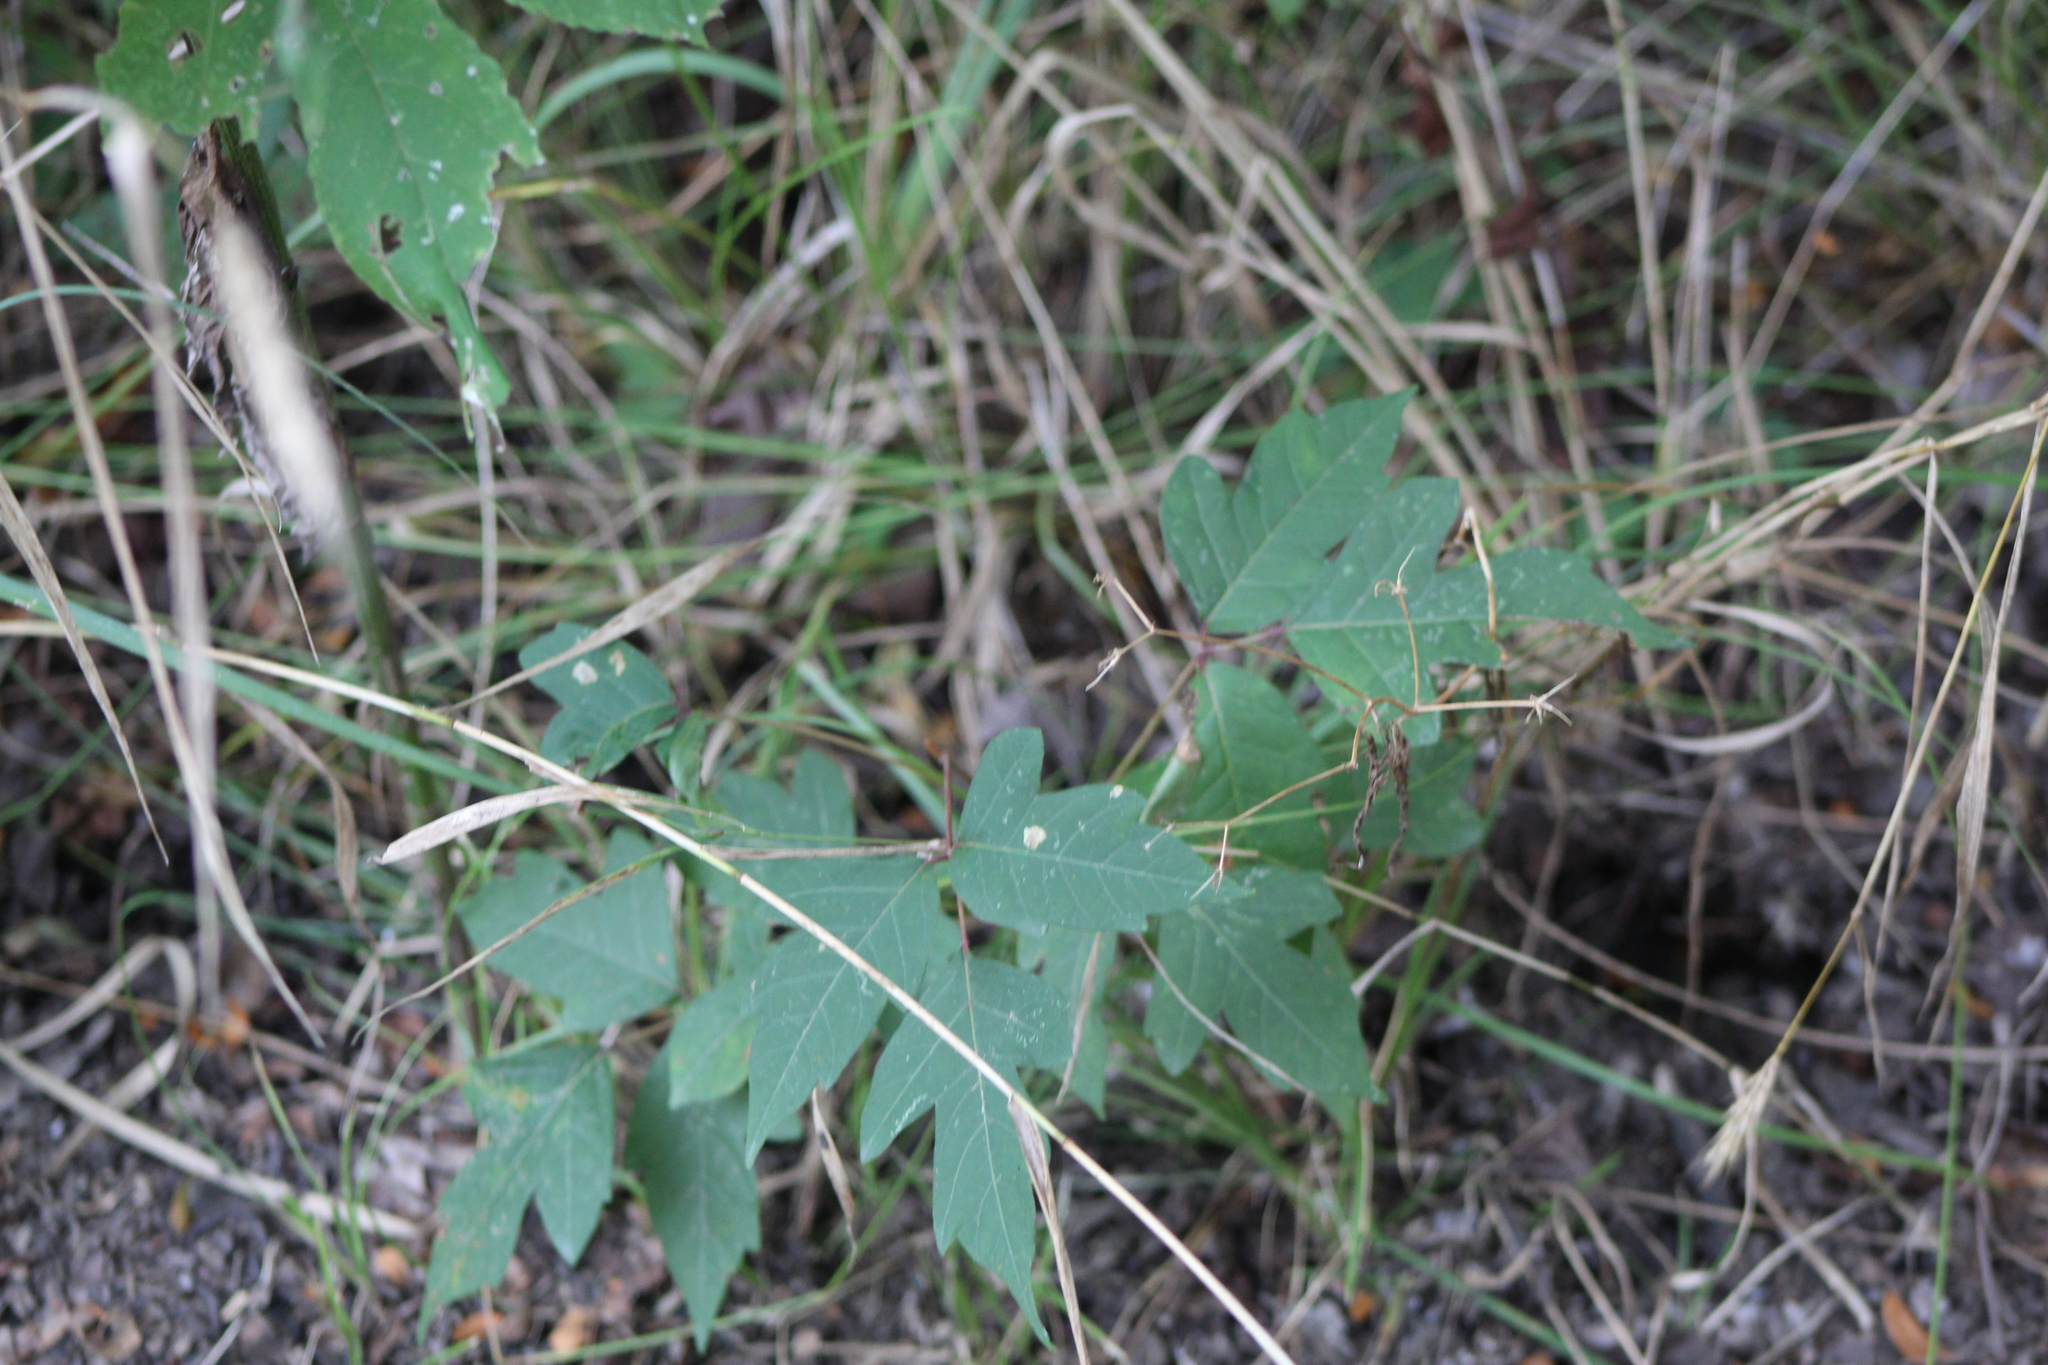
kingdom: Plantae
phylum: Tracheophyta
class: Magnoliopsida
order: Sapindales
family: Anacardiaceae
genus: Toxicodendron
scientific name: Toxicodendron radicans
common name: Poison ivy
